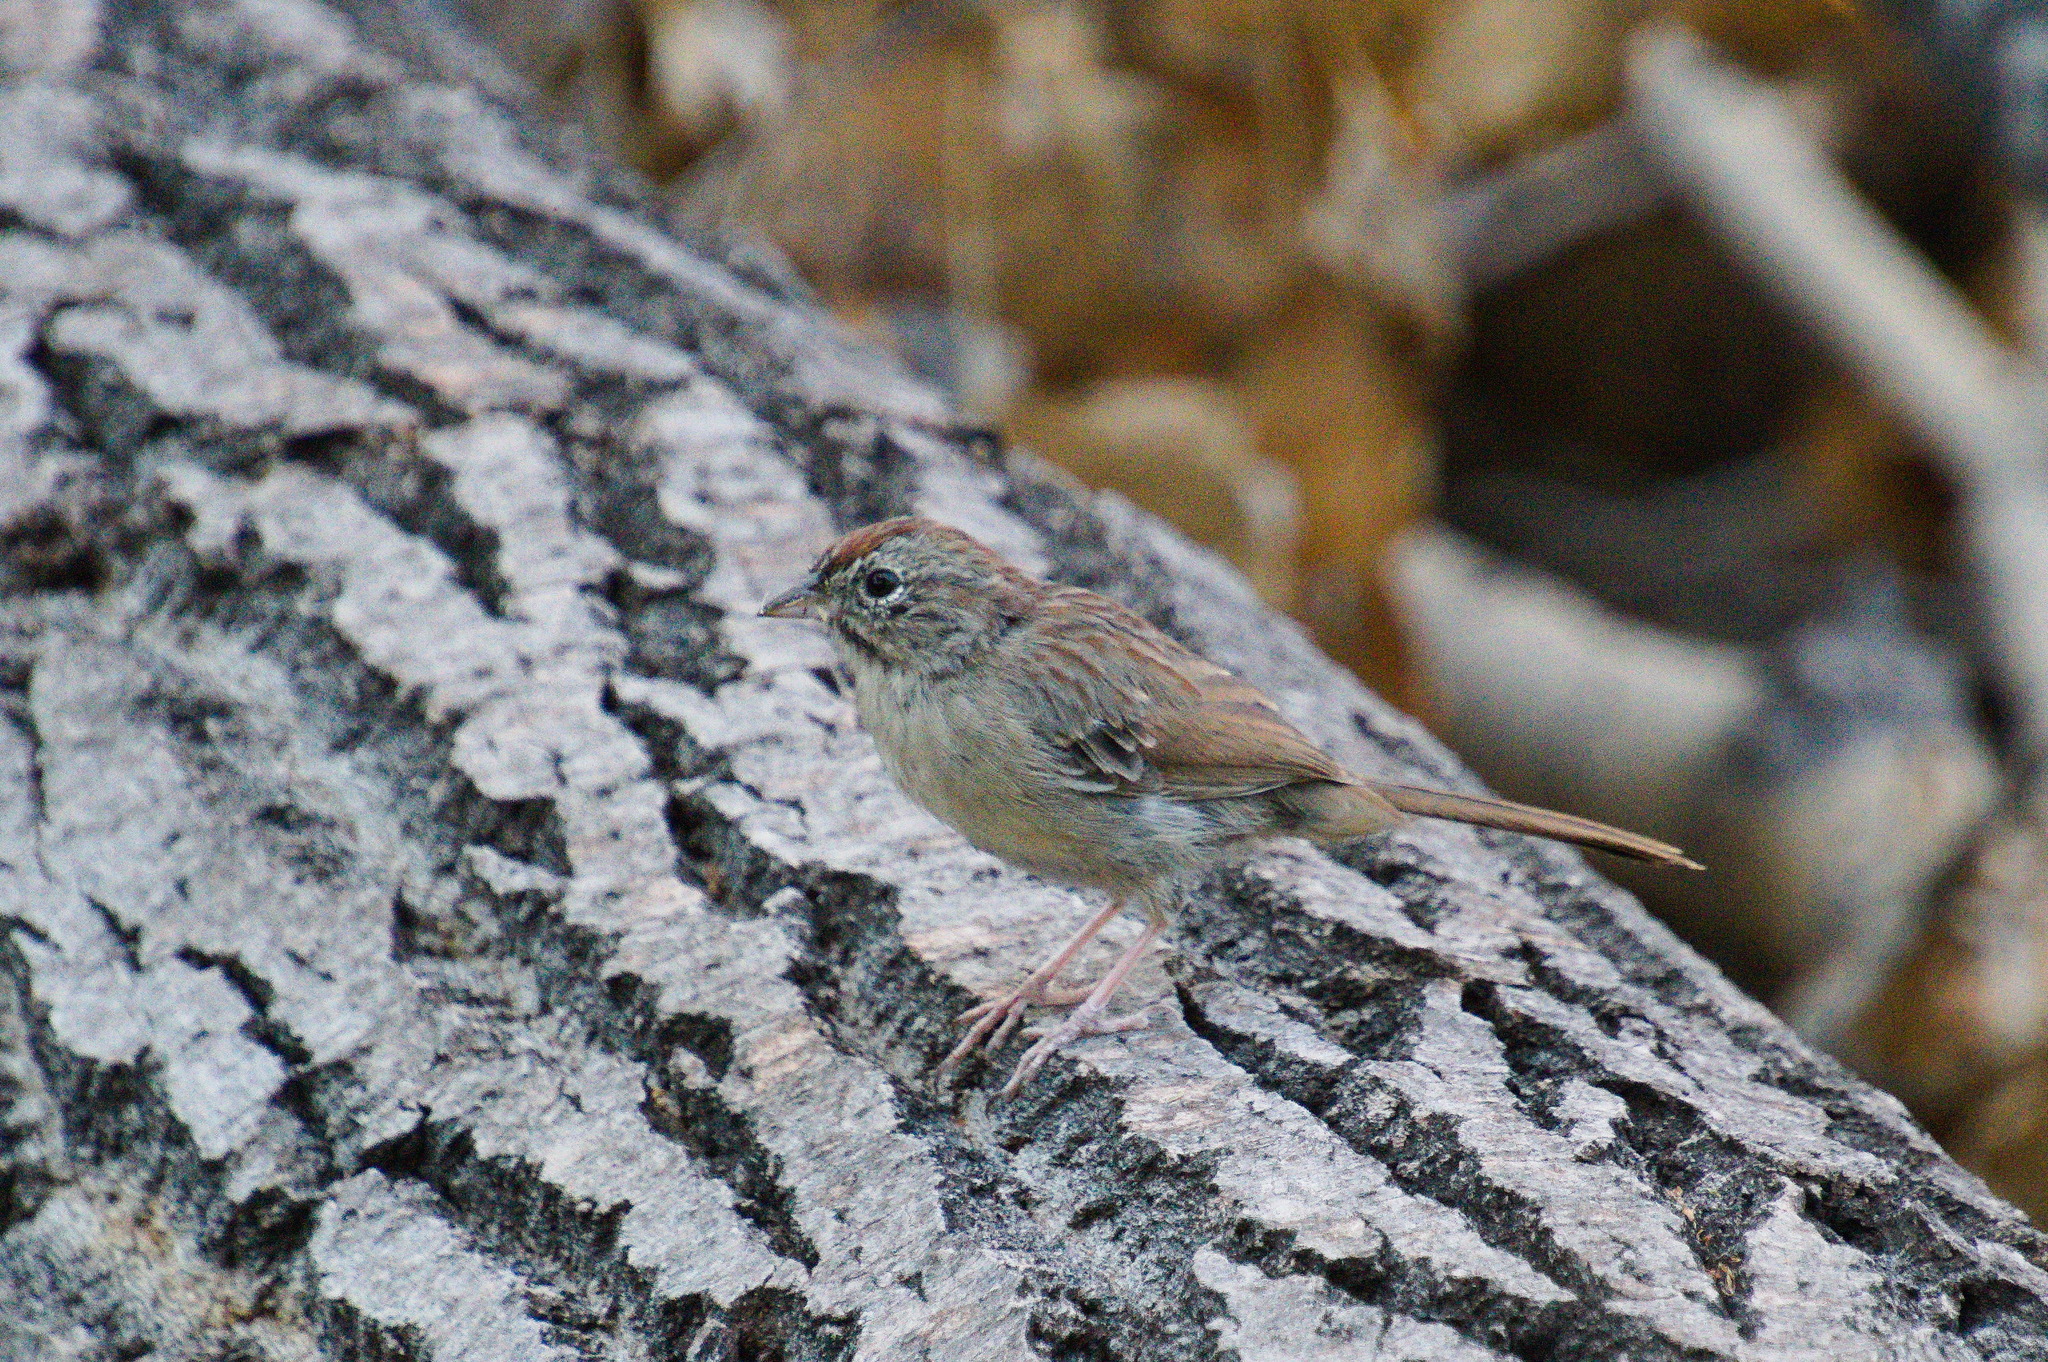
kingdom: Animalia
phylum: Chordata
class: Aves
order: Passeriformes
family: Passerellidae
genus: Aimophila
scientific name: Aimophila ruficeps
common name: Rufous-crowned sparrow
